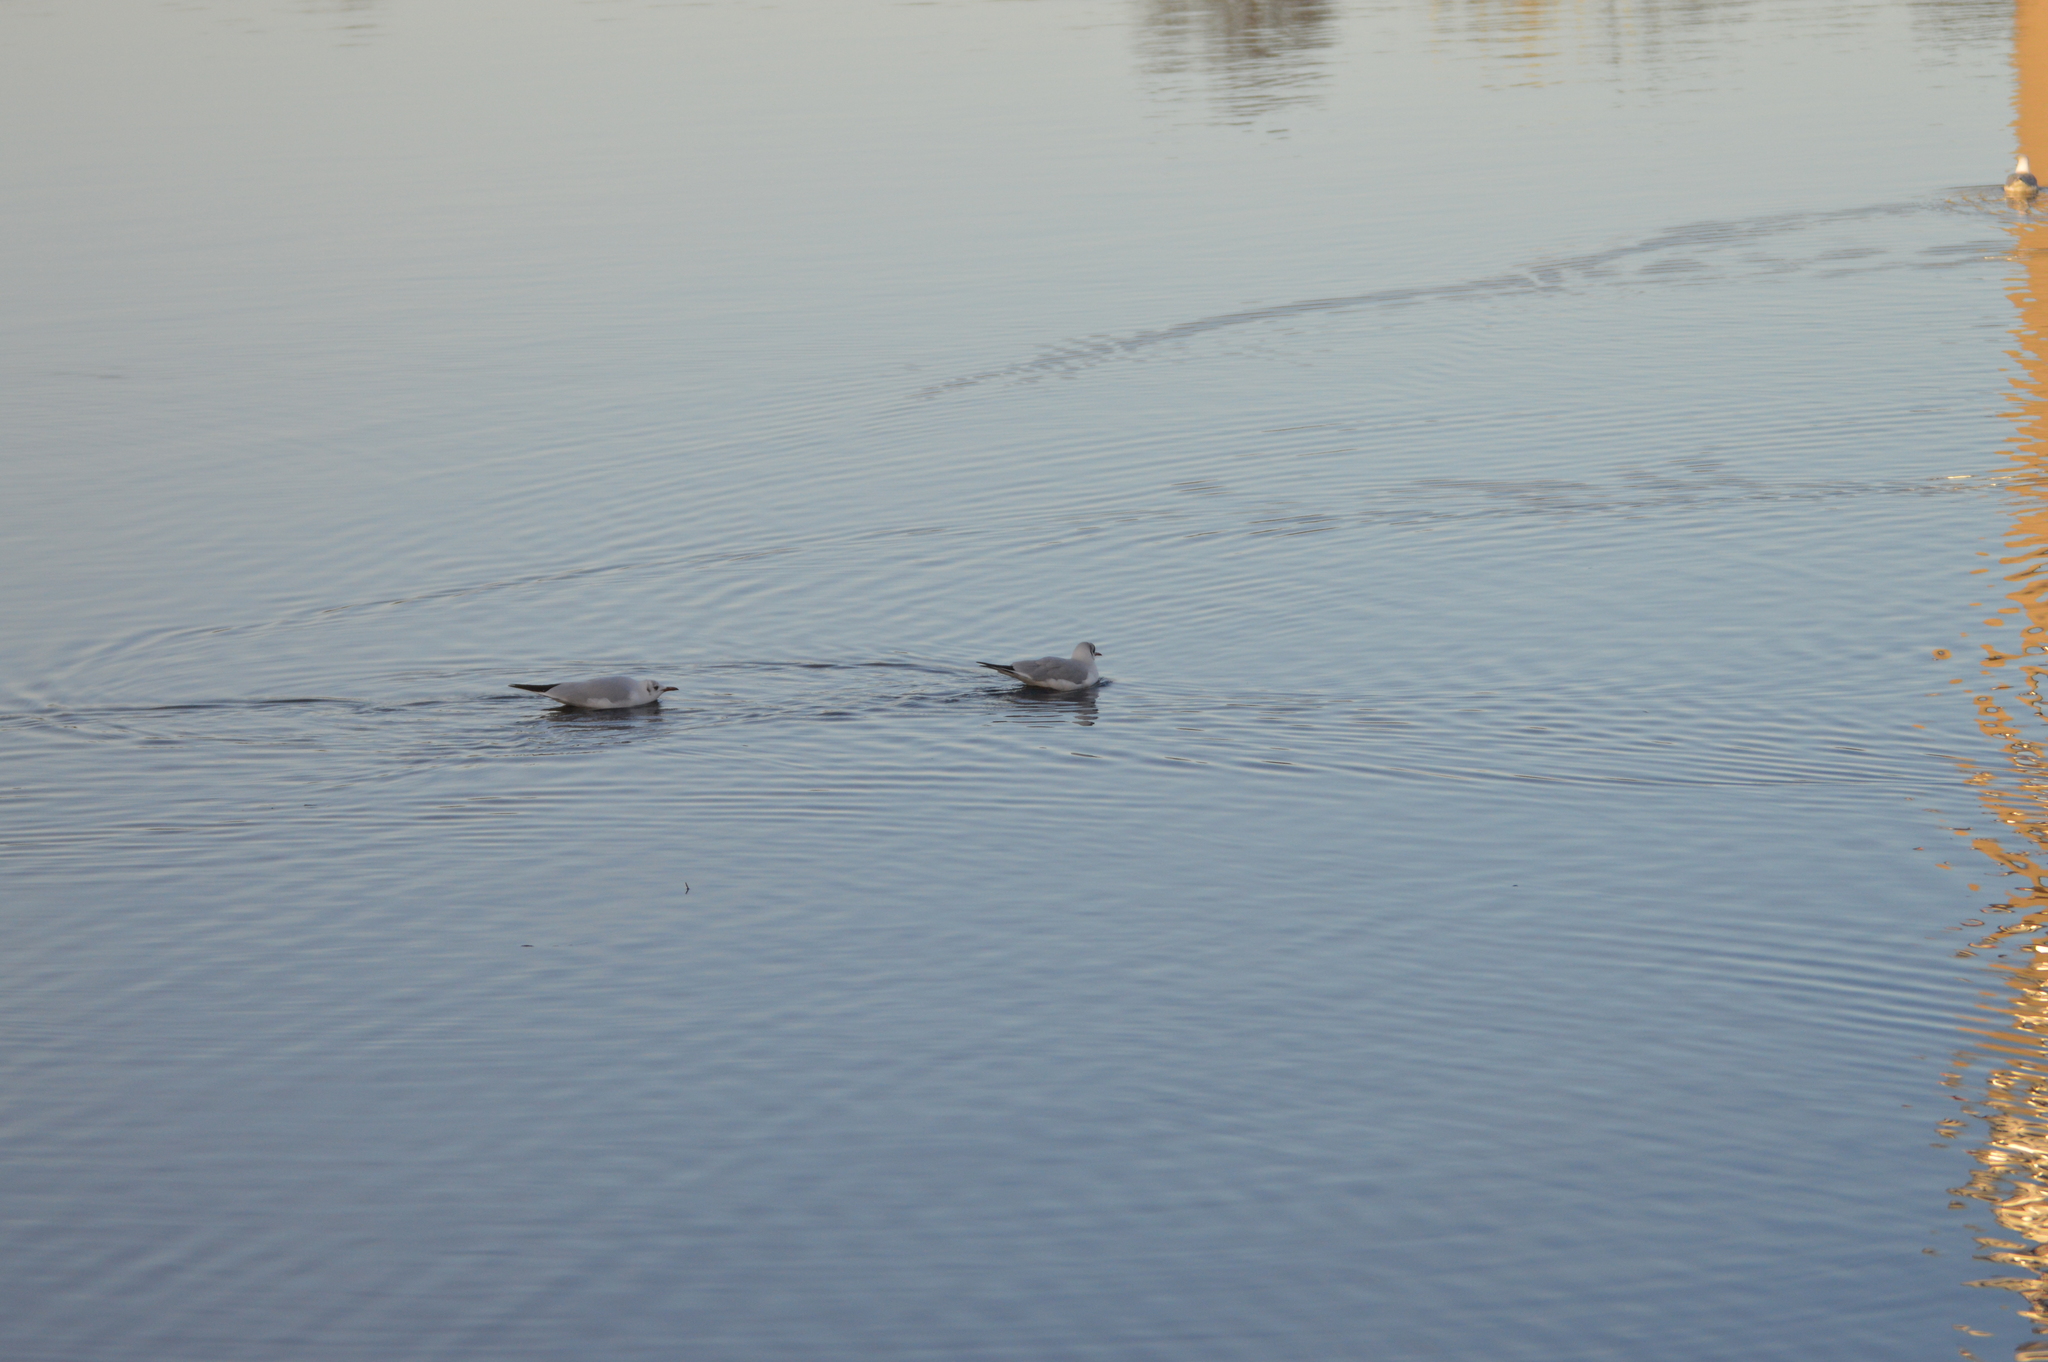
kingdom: Animalia
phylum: Chordata
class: Aves
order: Charadriiformes
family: Laridae
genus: Chroicocephalus
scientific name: Chroicocephalus ridibundus
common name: Black-headed gull
